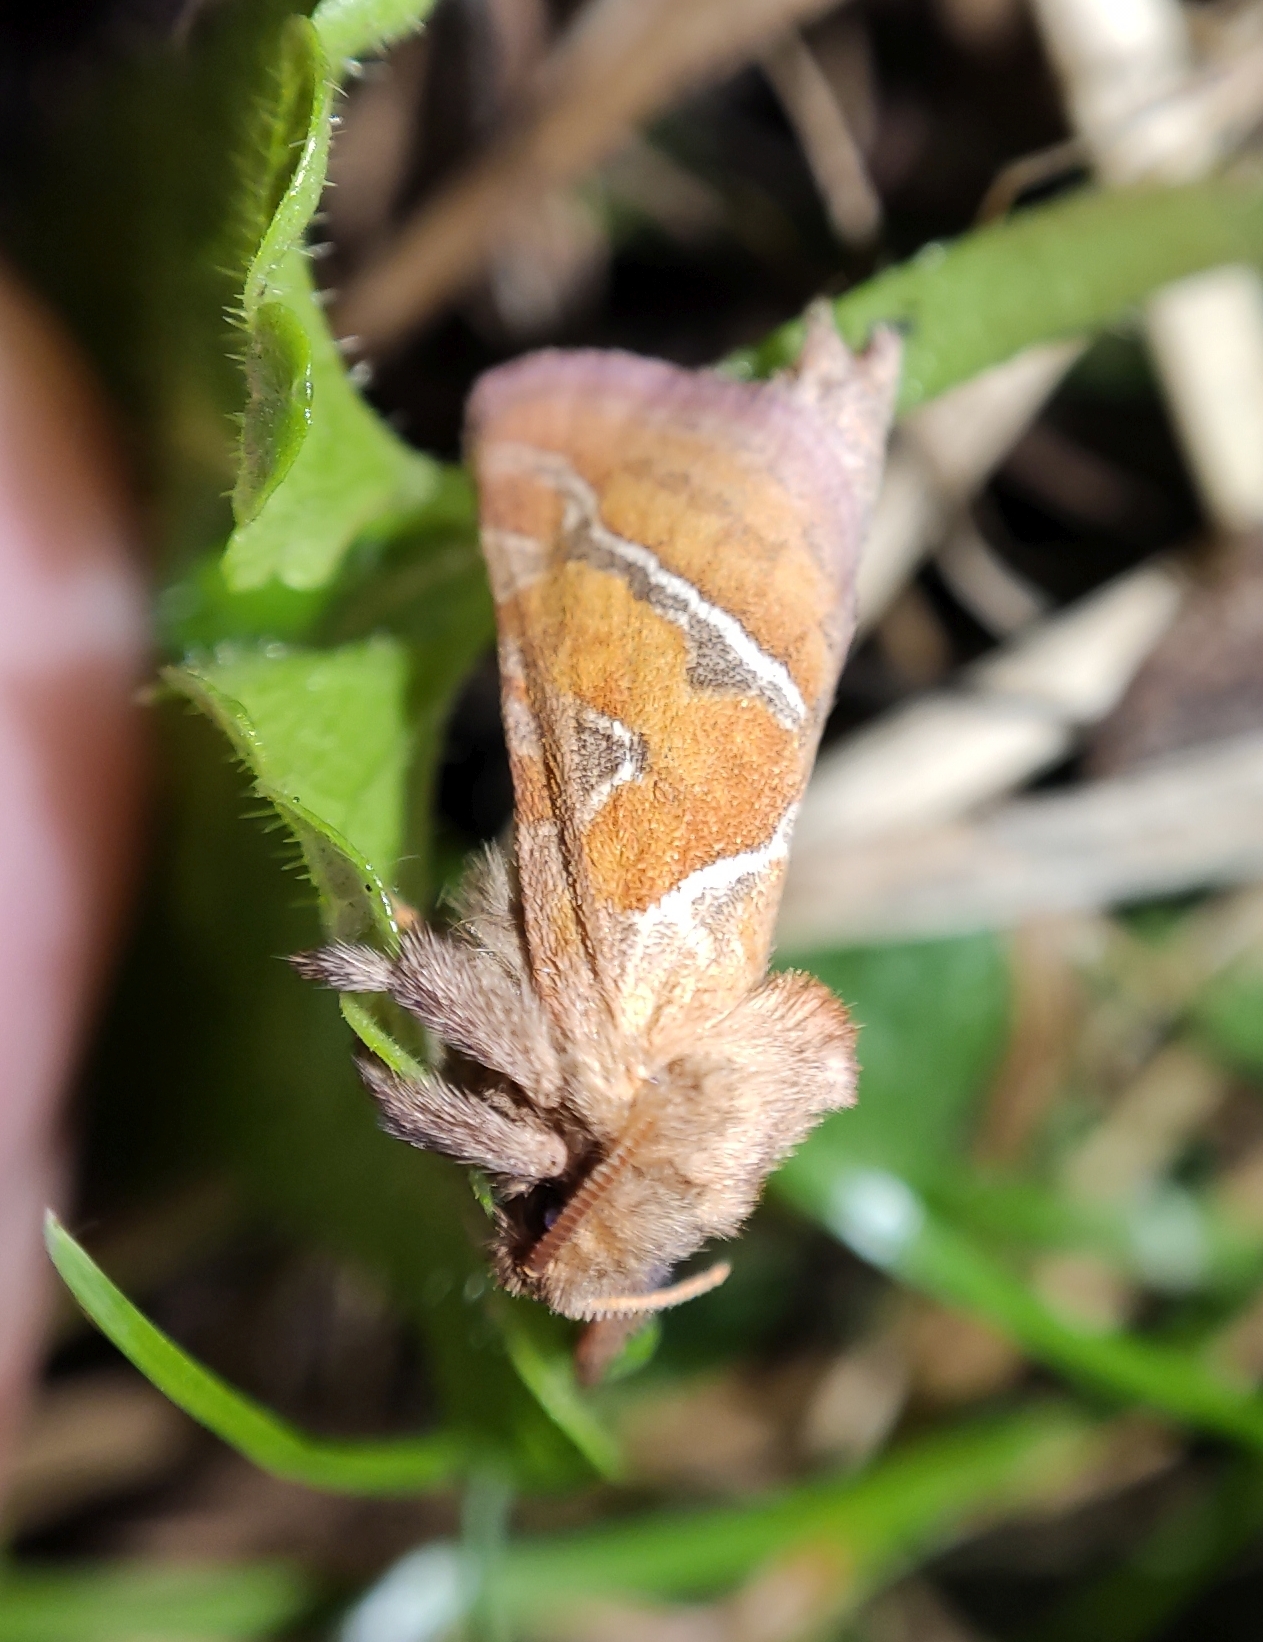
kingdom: Animalia
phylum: Arthropoda
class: Insecta
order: Lepidoptera
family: Hepialidae
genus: Triodia
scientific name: Triodia sylvina
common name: Orange swift
